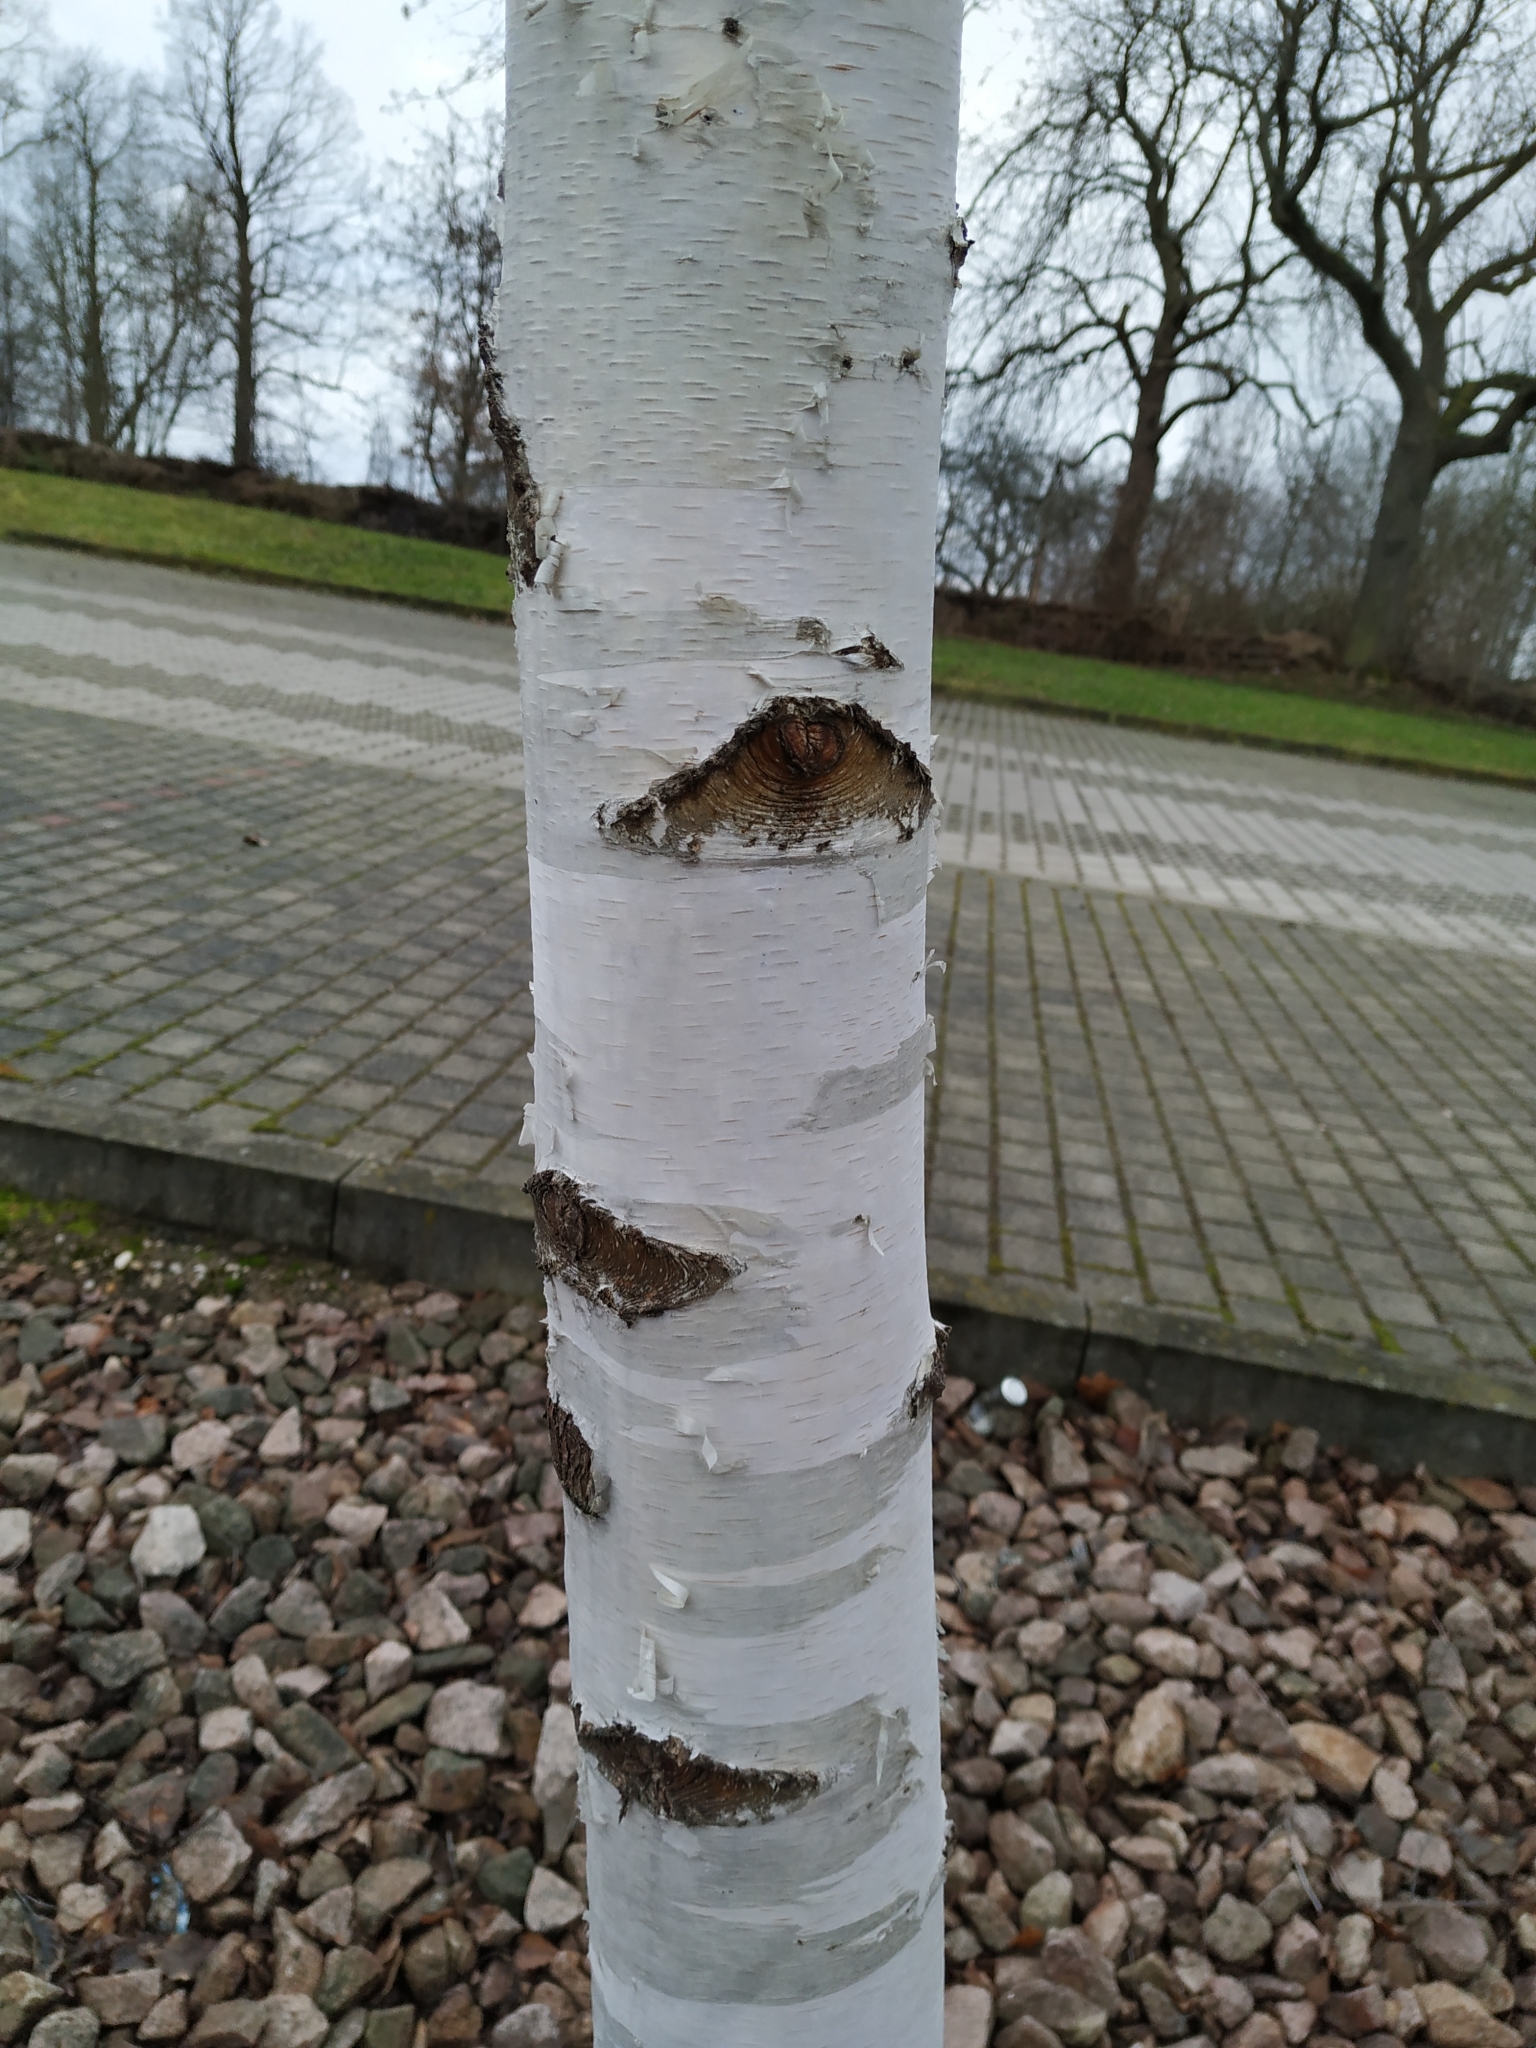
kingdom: Plantae
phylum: Tracheophyta
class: Magnoliopsida
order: Fagales
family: Betulaceae
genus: Betula
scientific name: Betula pendula
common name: Silver birch
